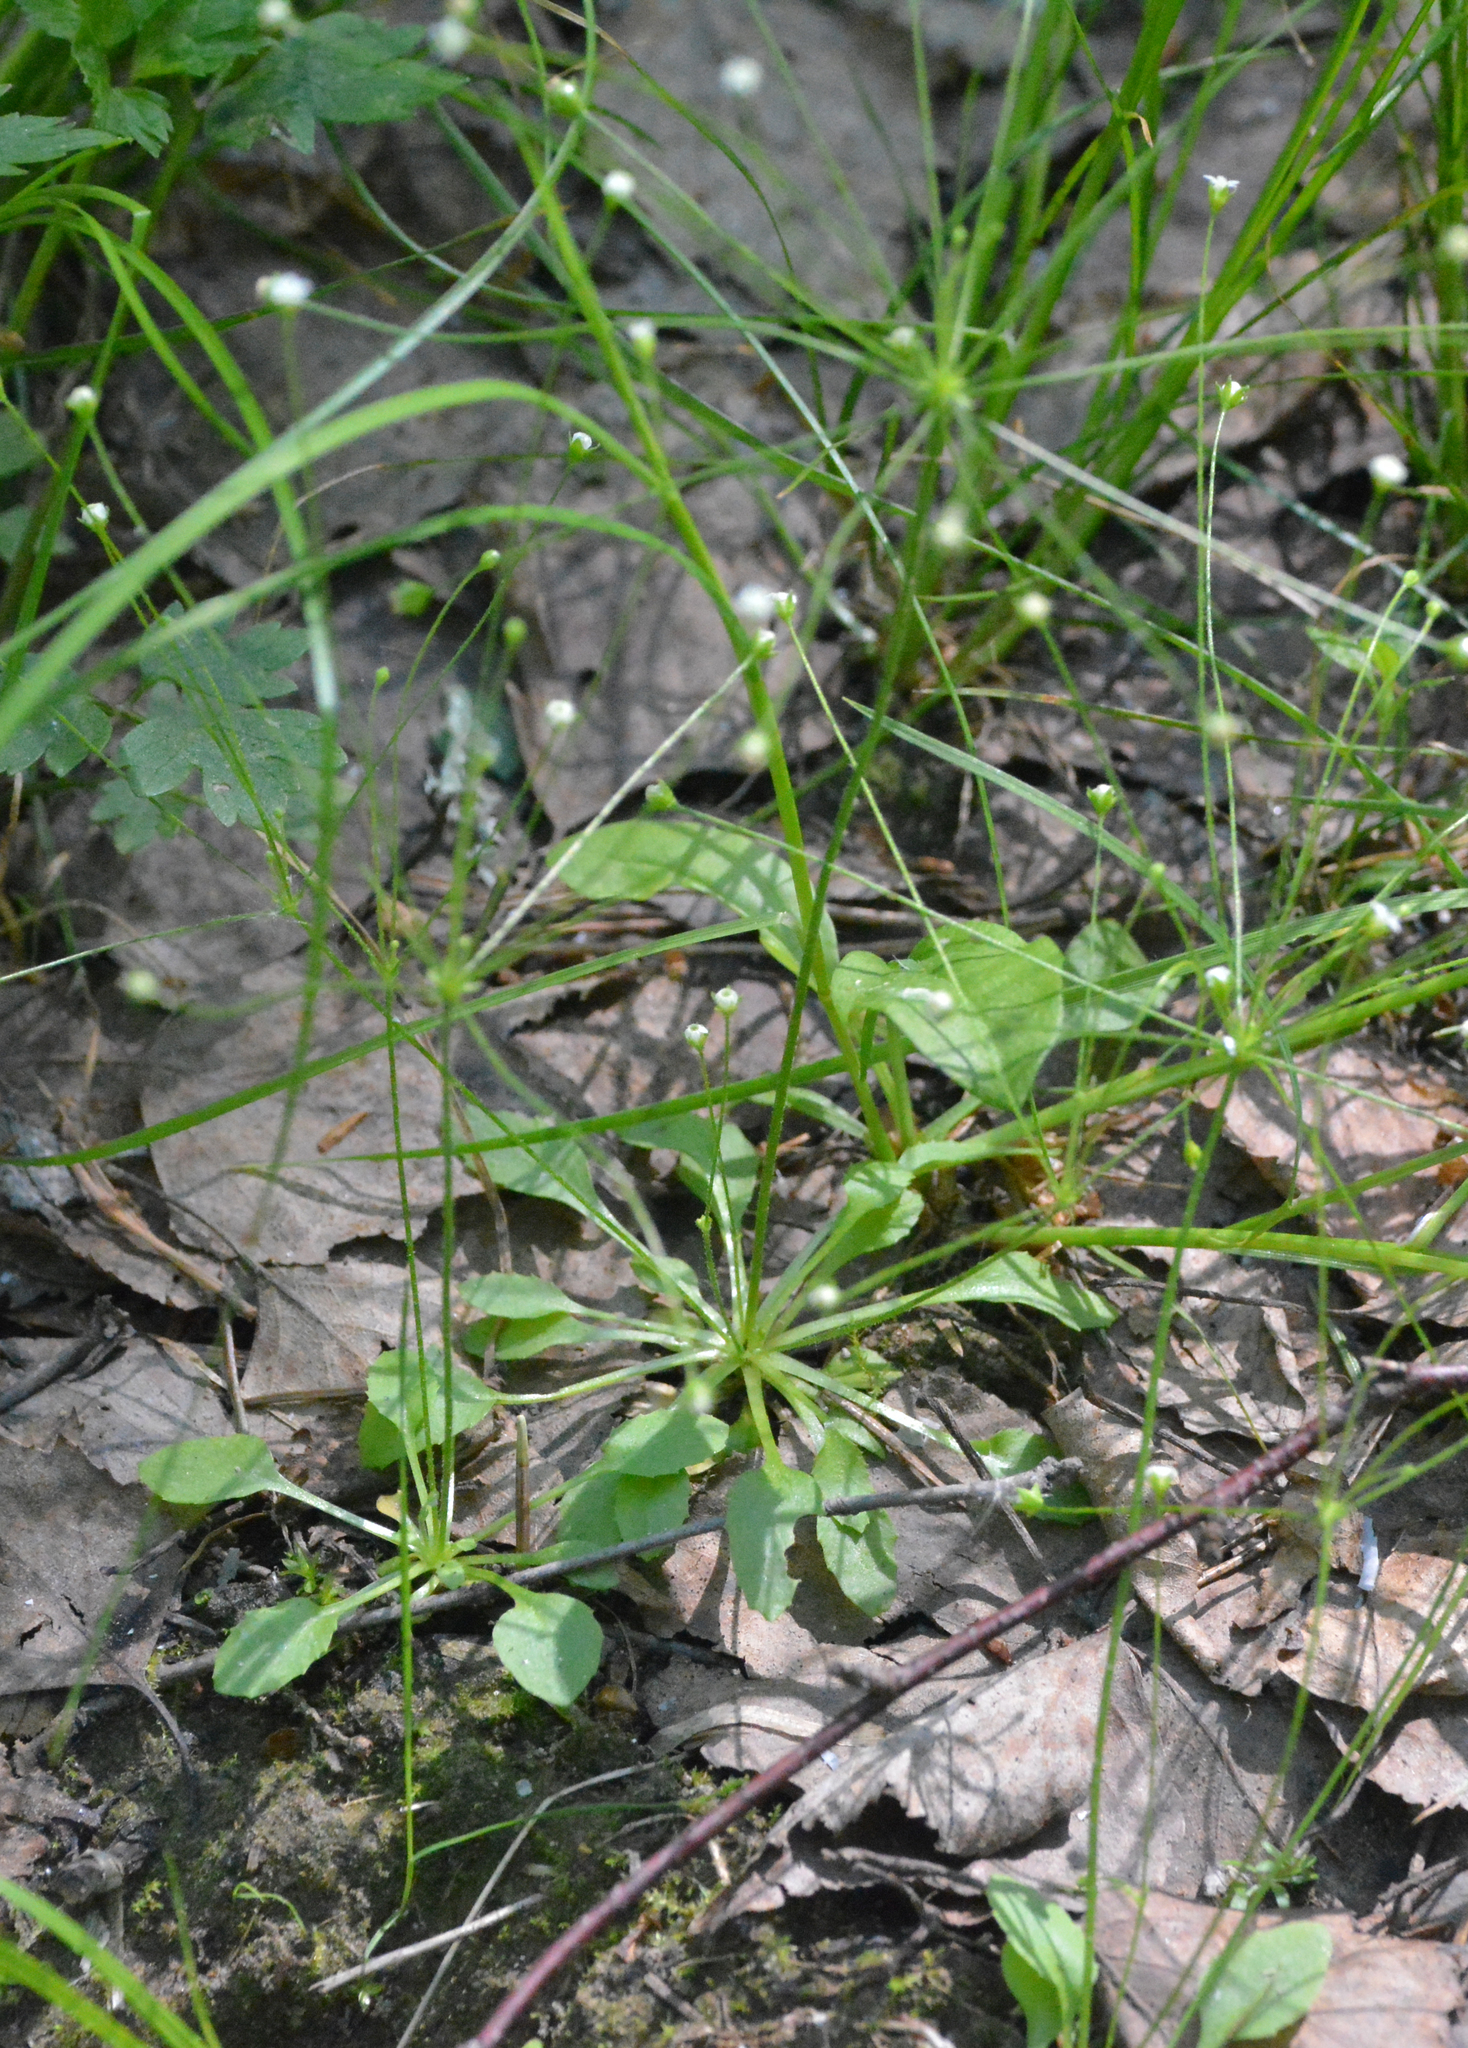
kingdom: Plantae
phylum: Tracheophyta
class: Magnoliopsida
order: Ericales
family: Primulaceae
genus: Androsace
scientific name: Androsace filiformis
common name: Filiform rock jasmine
